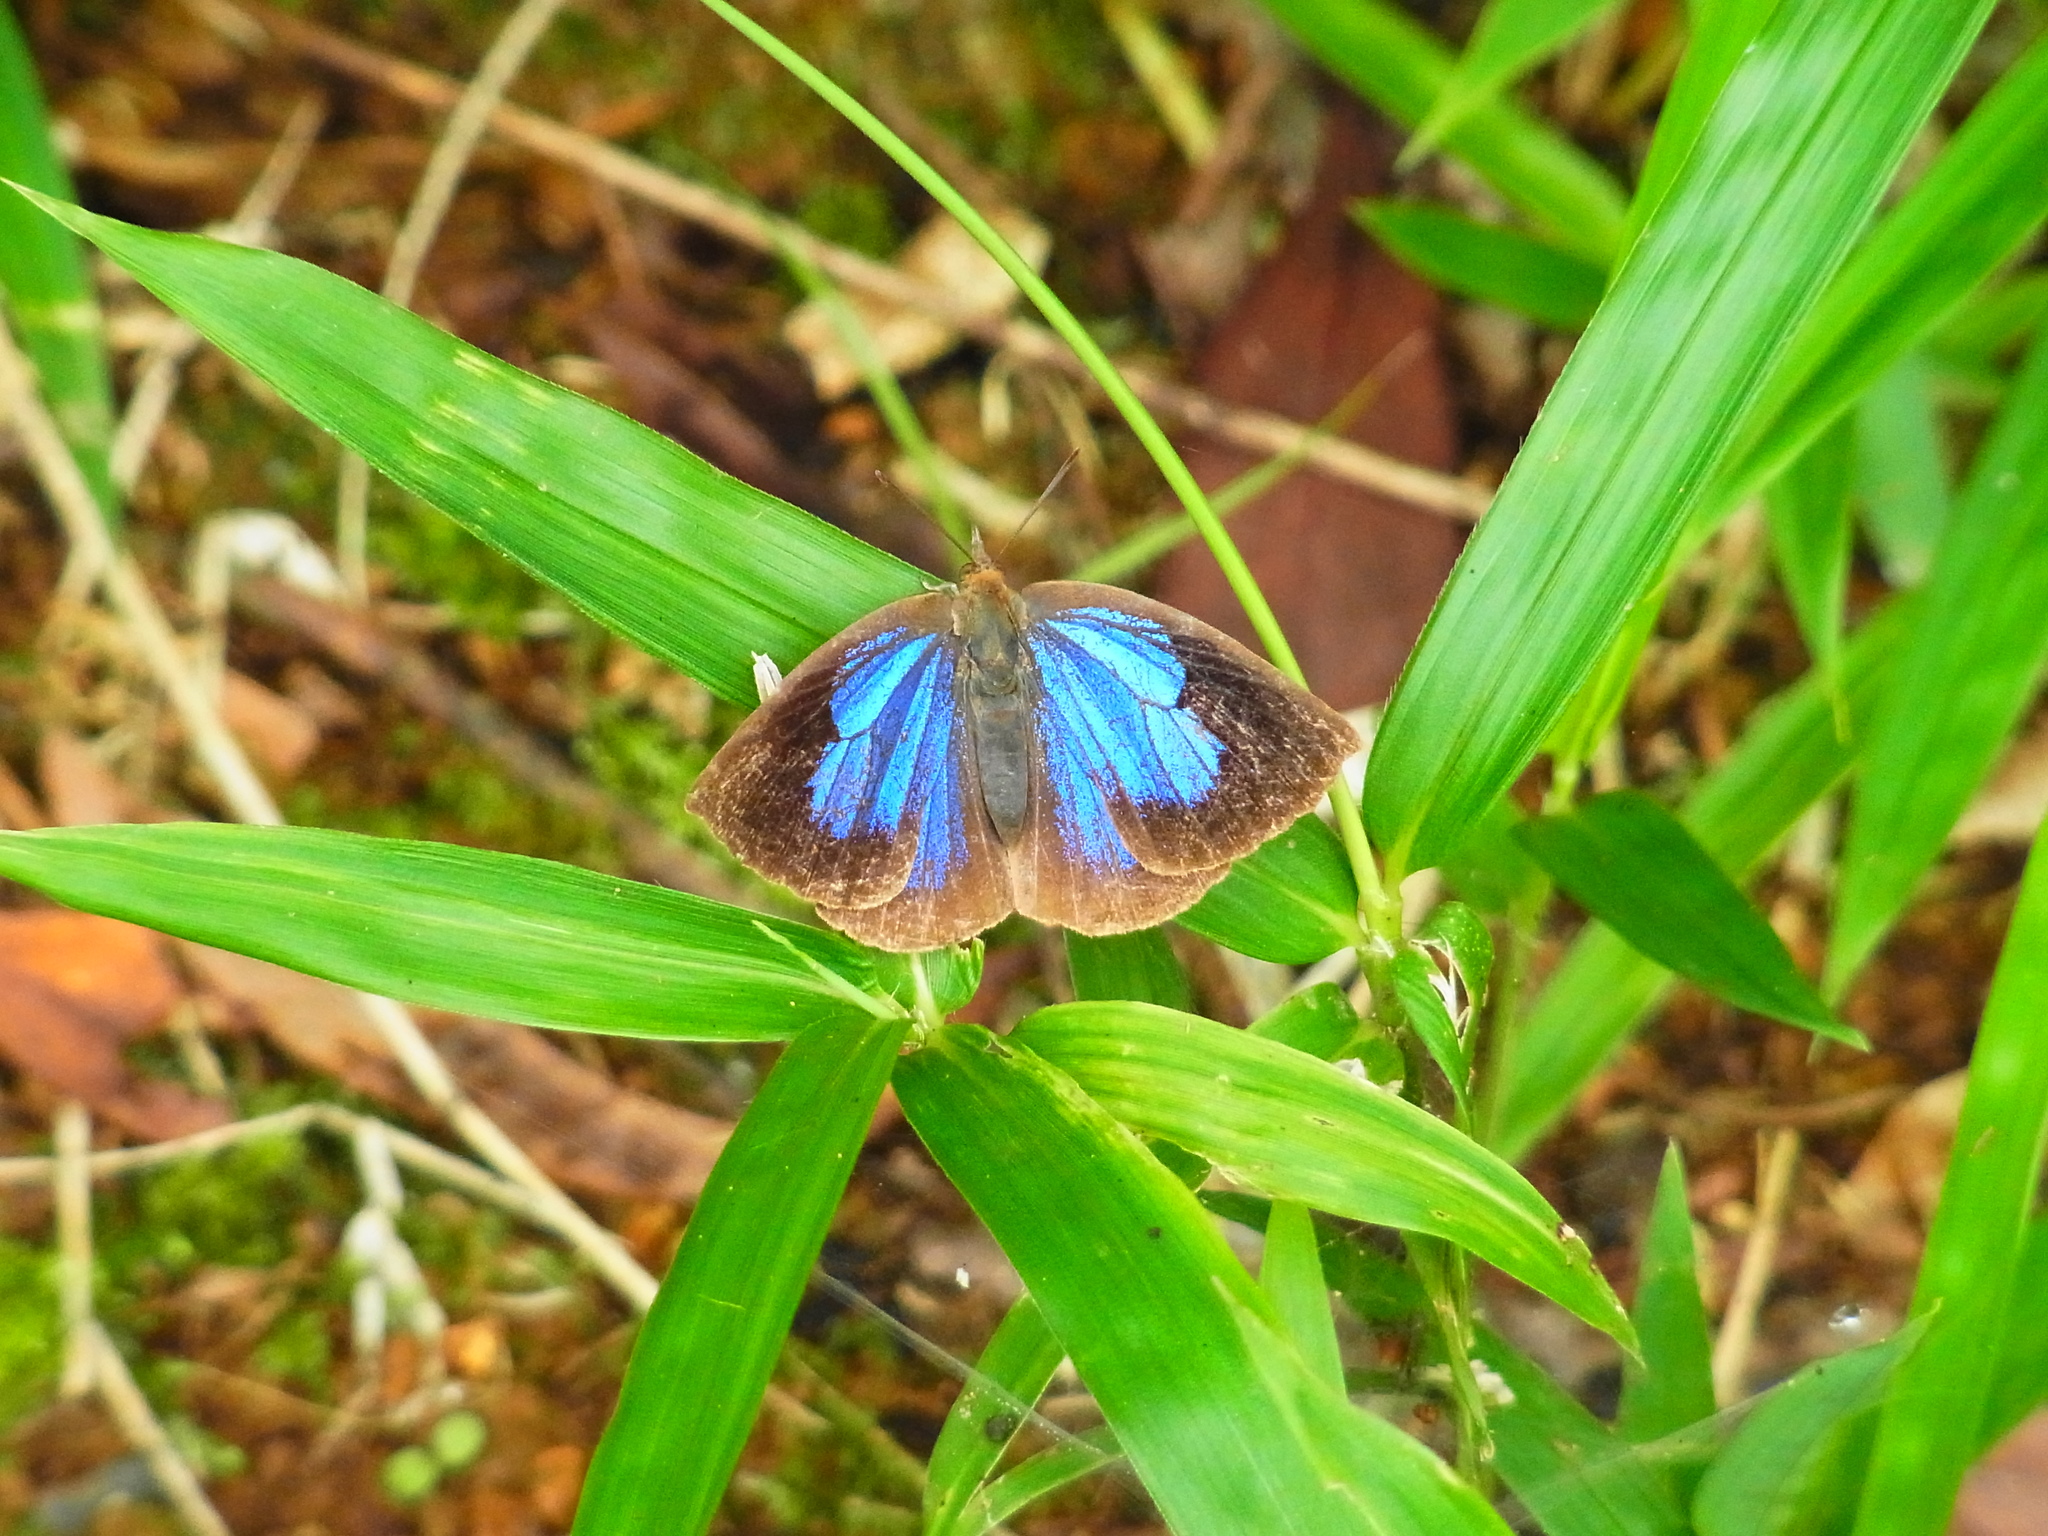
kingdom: Animalia
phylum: Arthropoda
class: Insecta
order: Lepidoptera
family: Lycaenidae
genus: Arhopala
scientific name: Arhopala japonica
